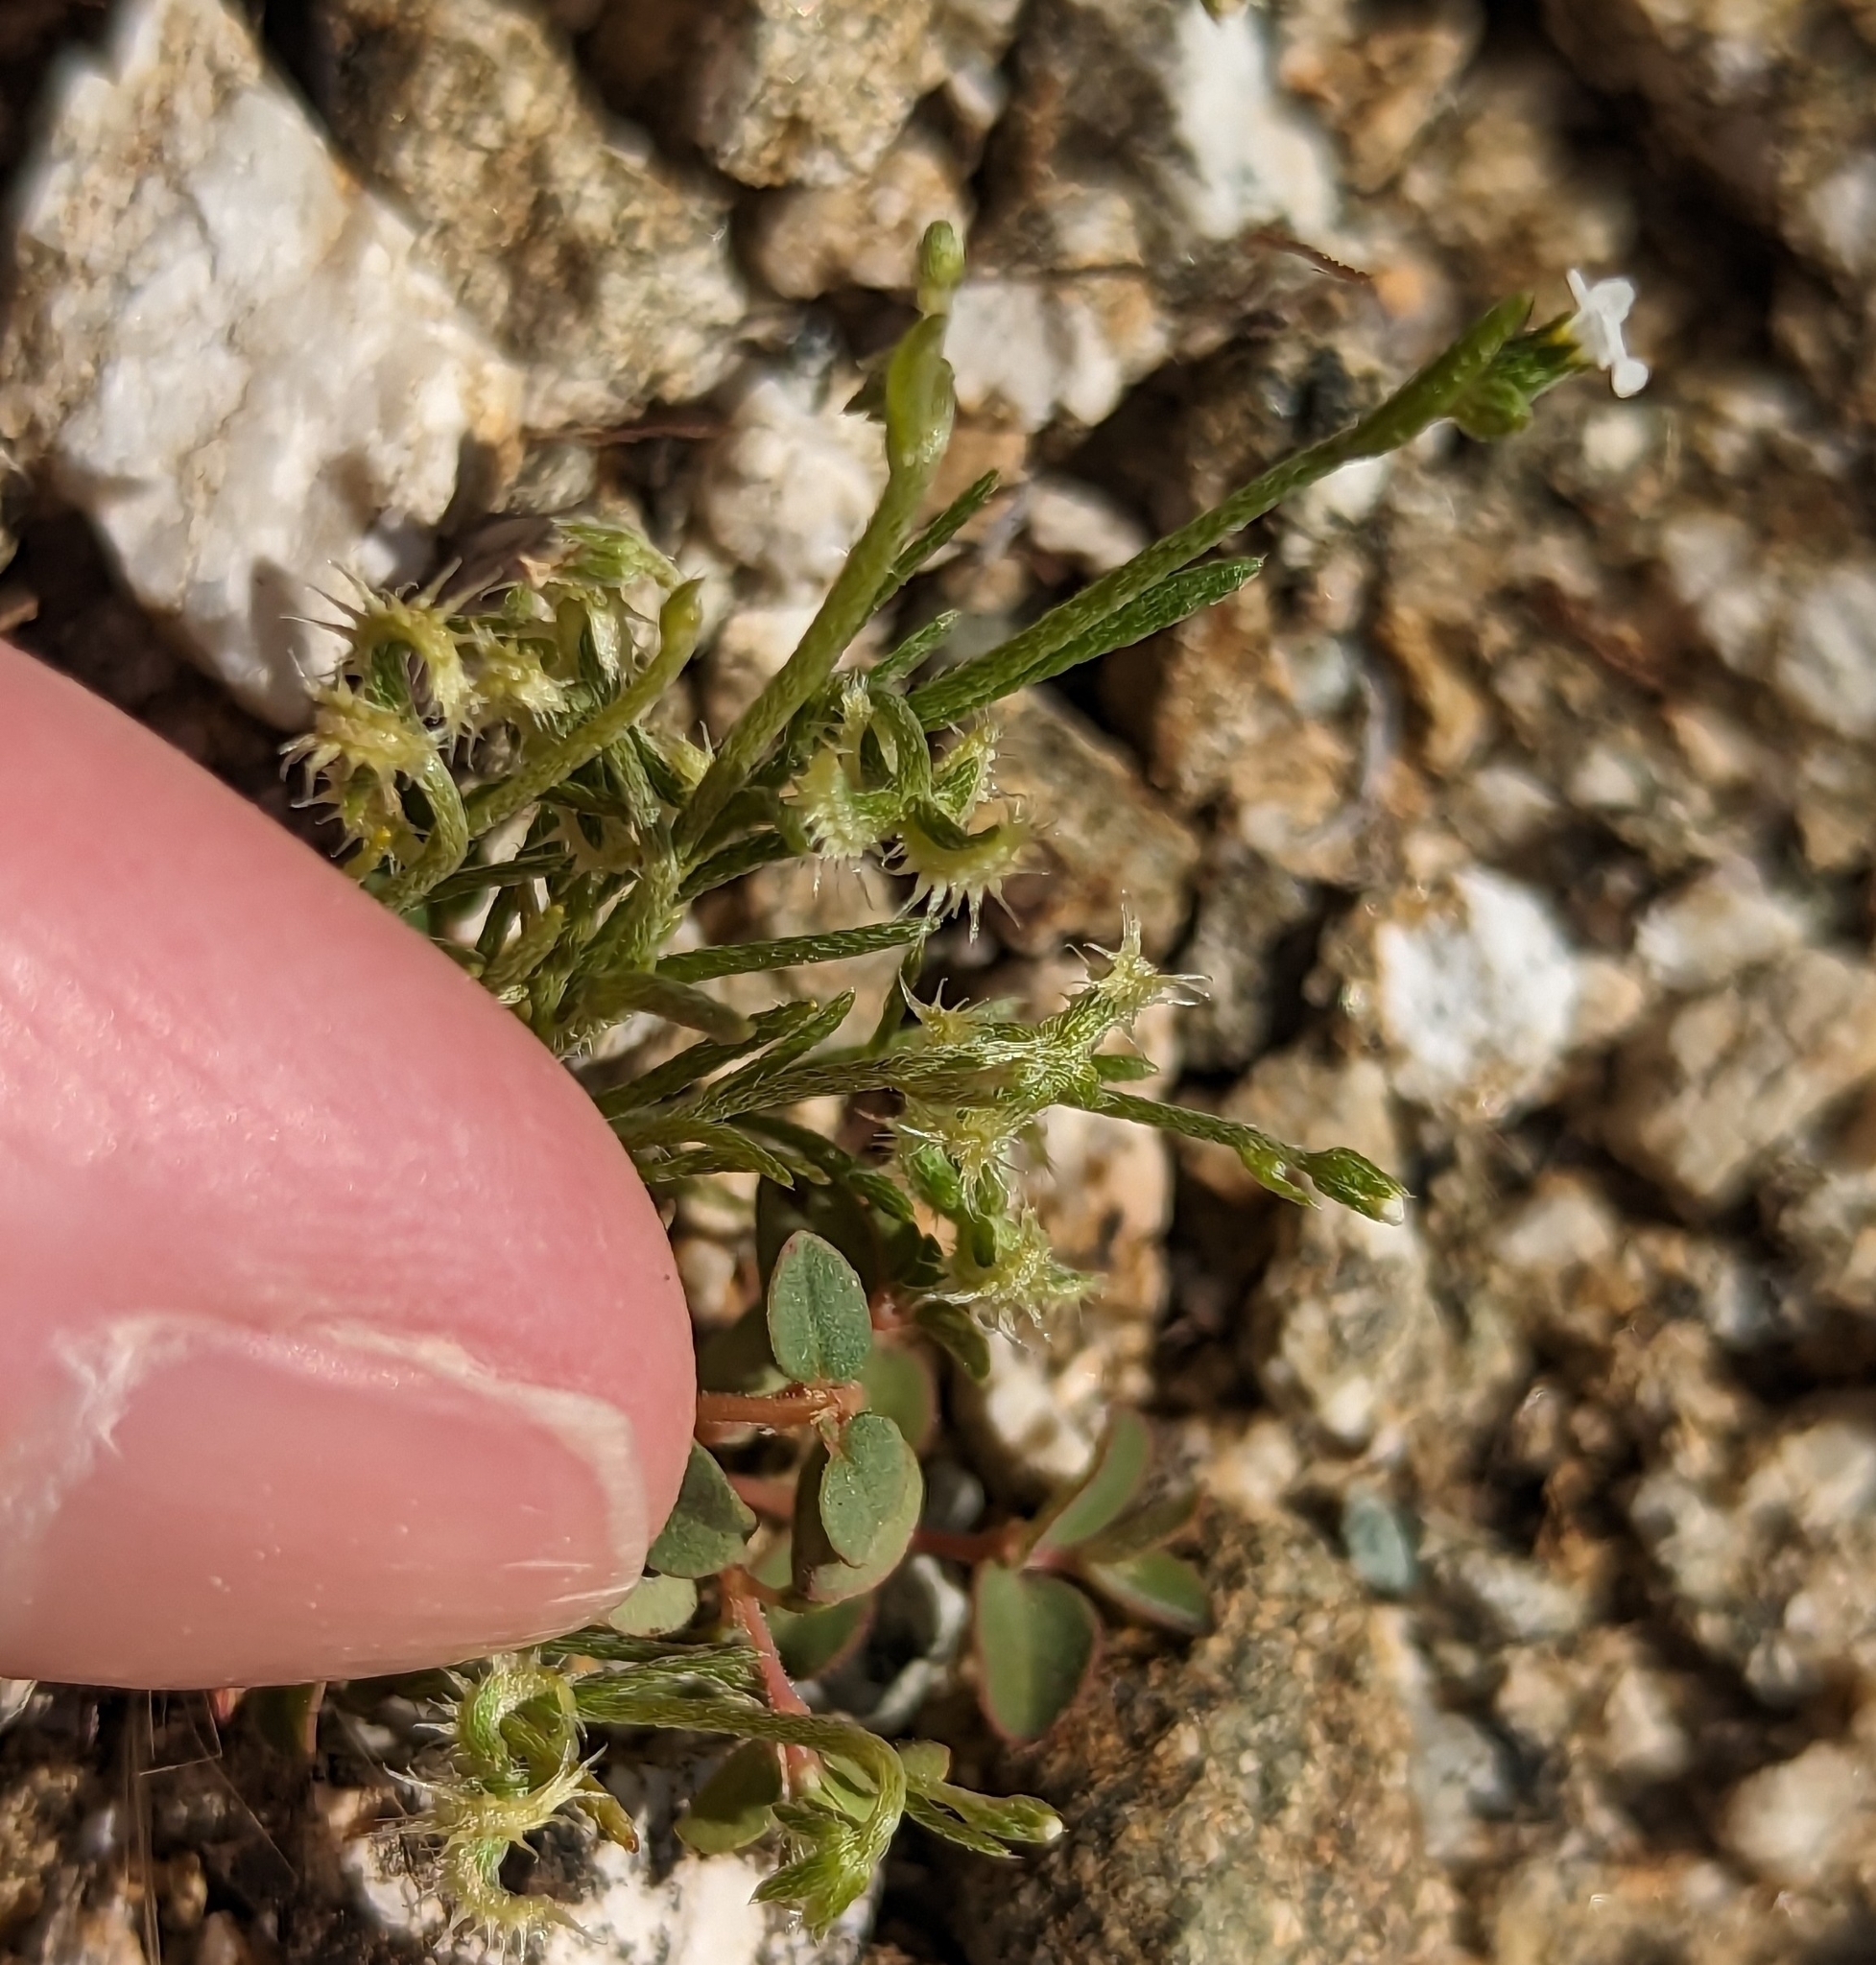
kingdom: Plantae
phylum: Tracheophyta
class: Magnoliopsida
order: Boraginales
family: Boraginaceae
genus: Pectocarya
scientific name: Pectocarya recurvata
